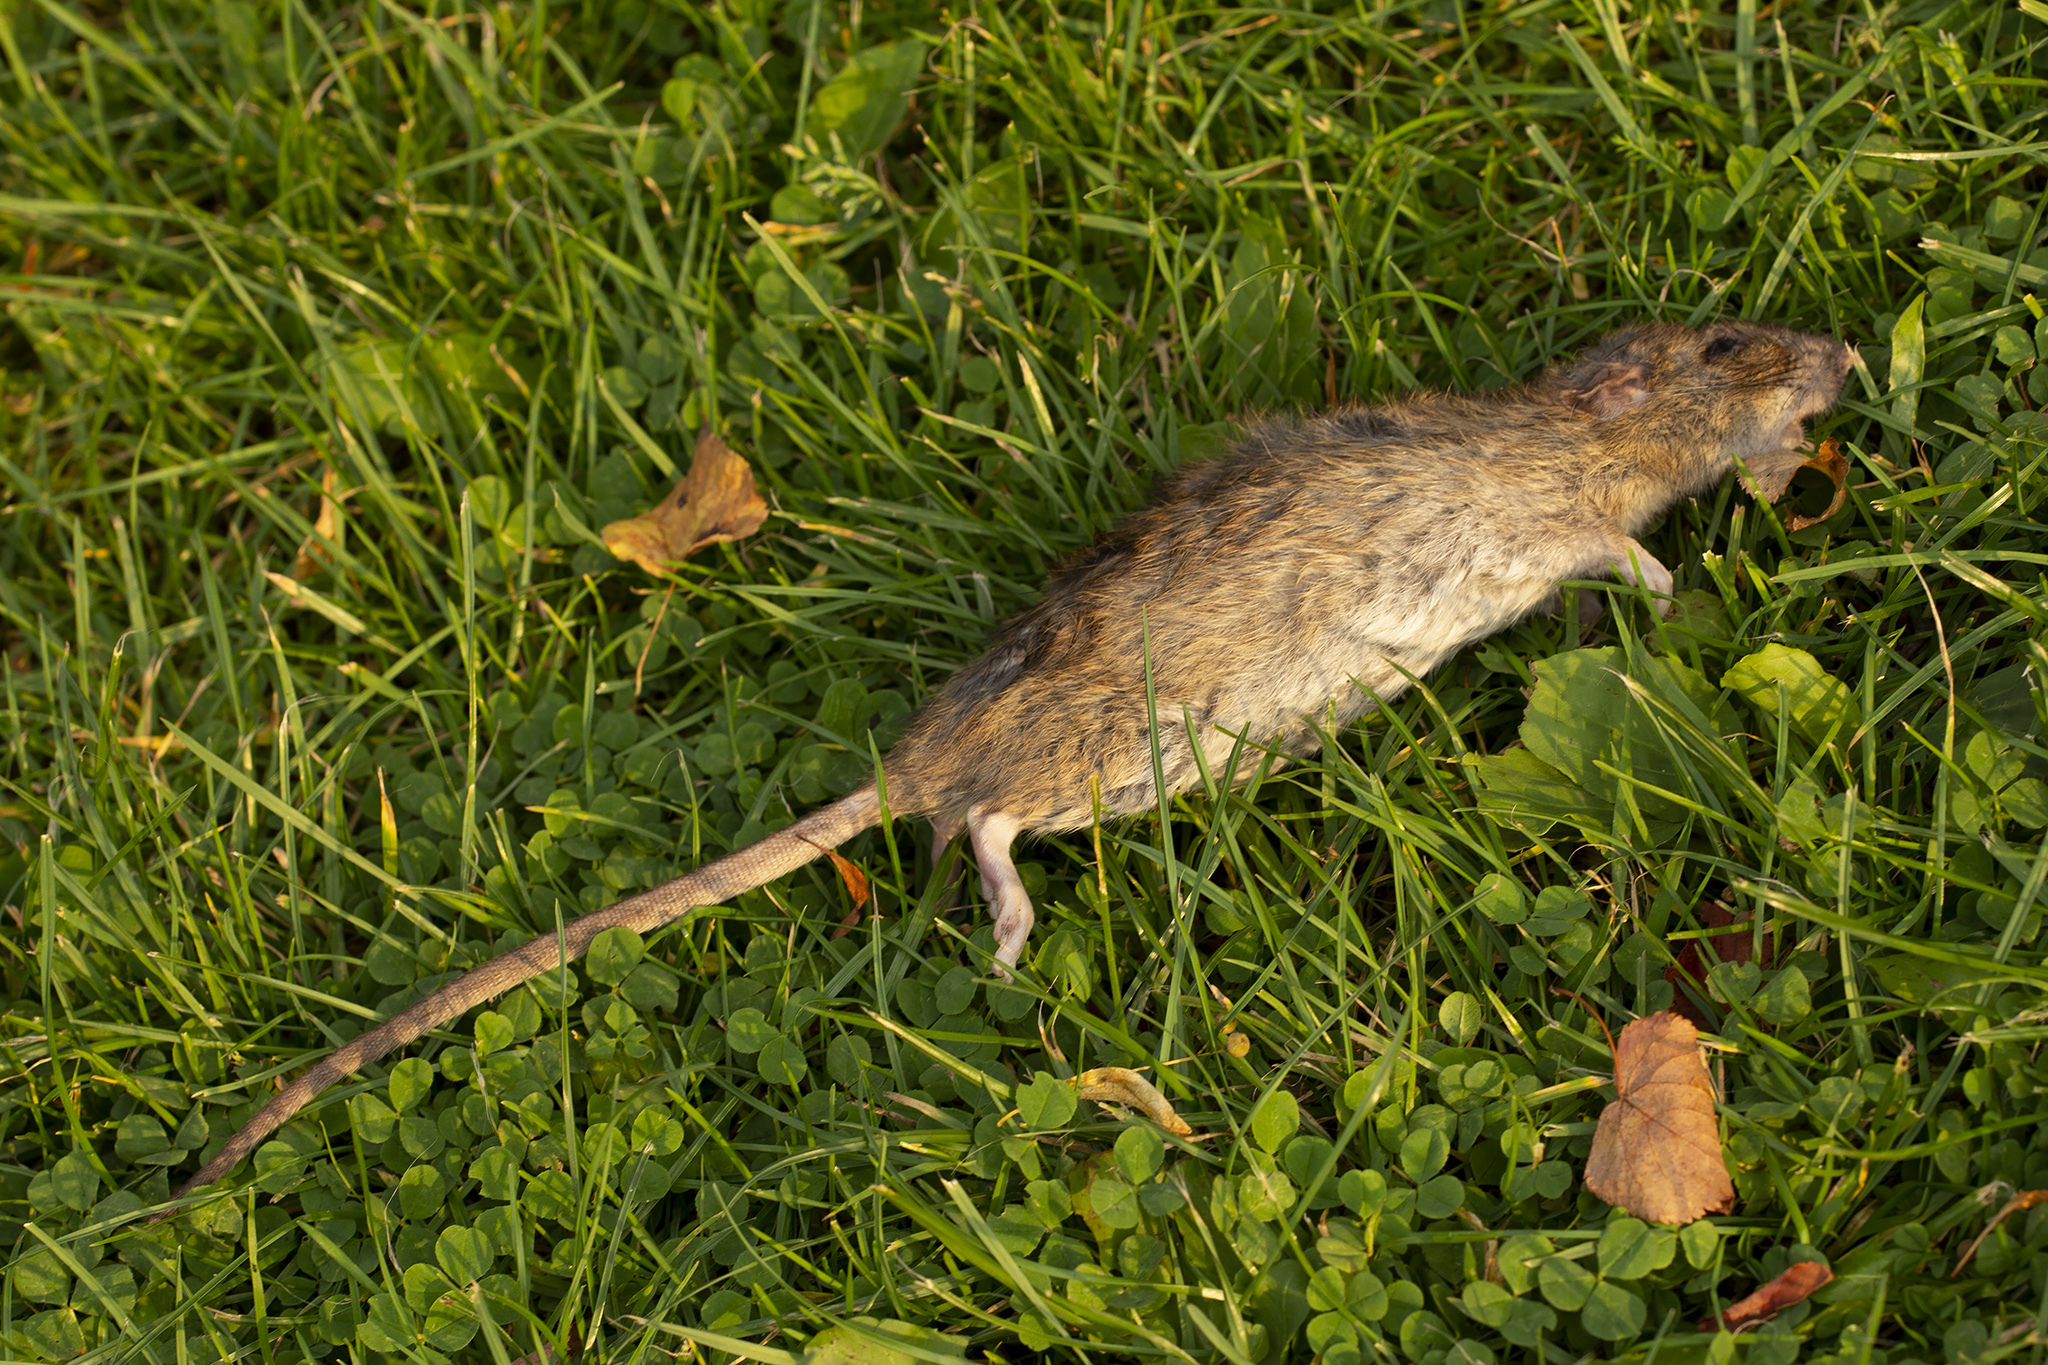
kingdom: Animalia
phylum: Chordata
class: Mammalia
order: Rodentia
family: Muridae
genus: Rattus
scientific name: Rattus norvegicus
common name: Brown rat
